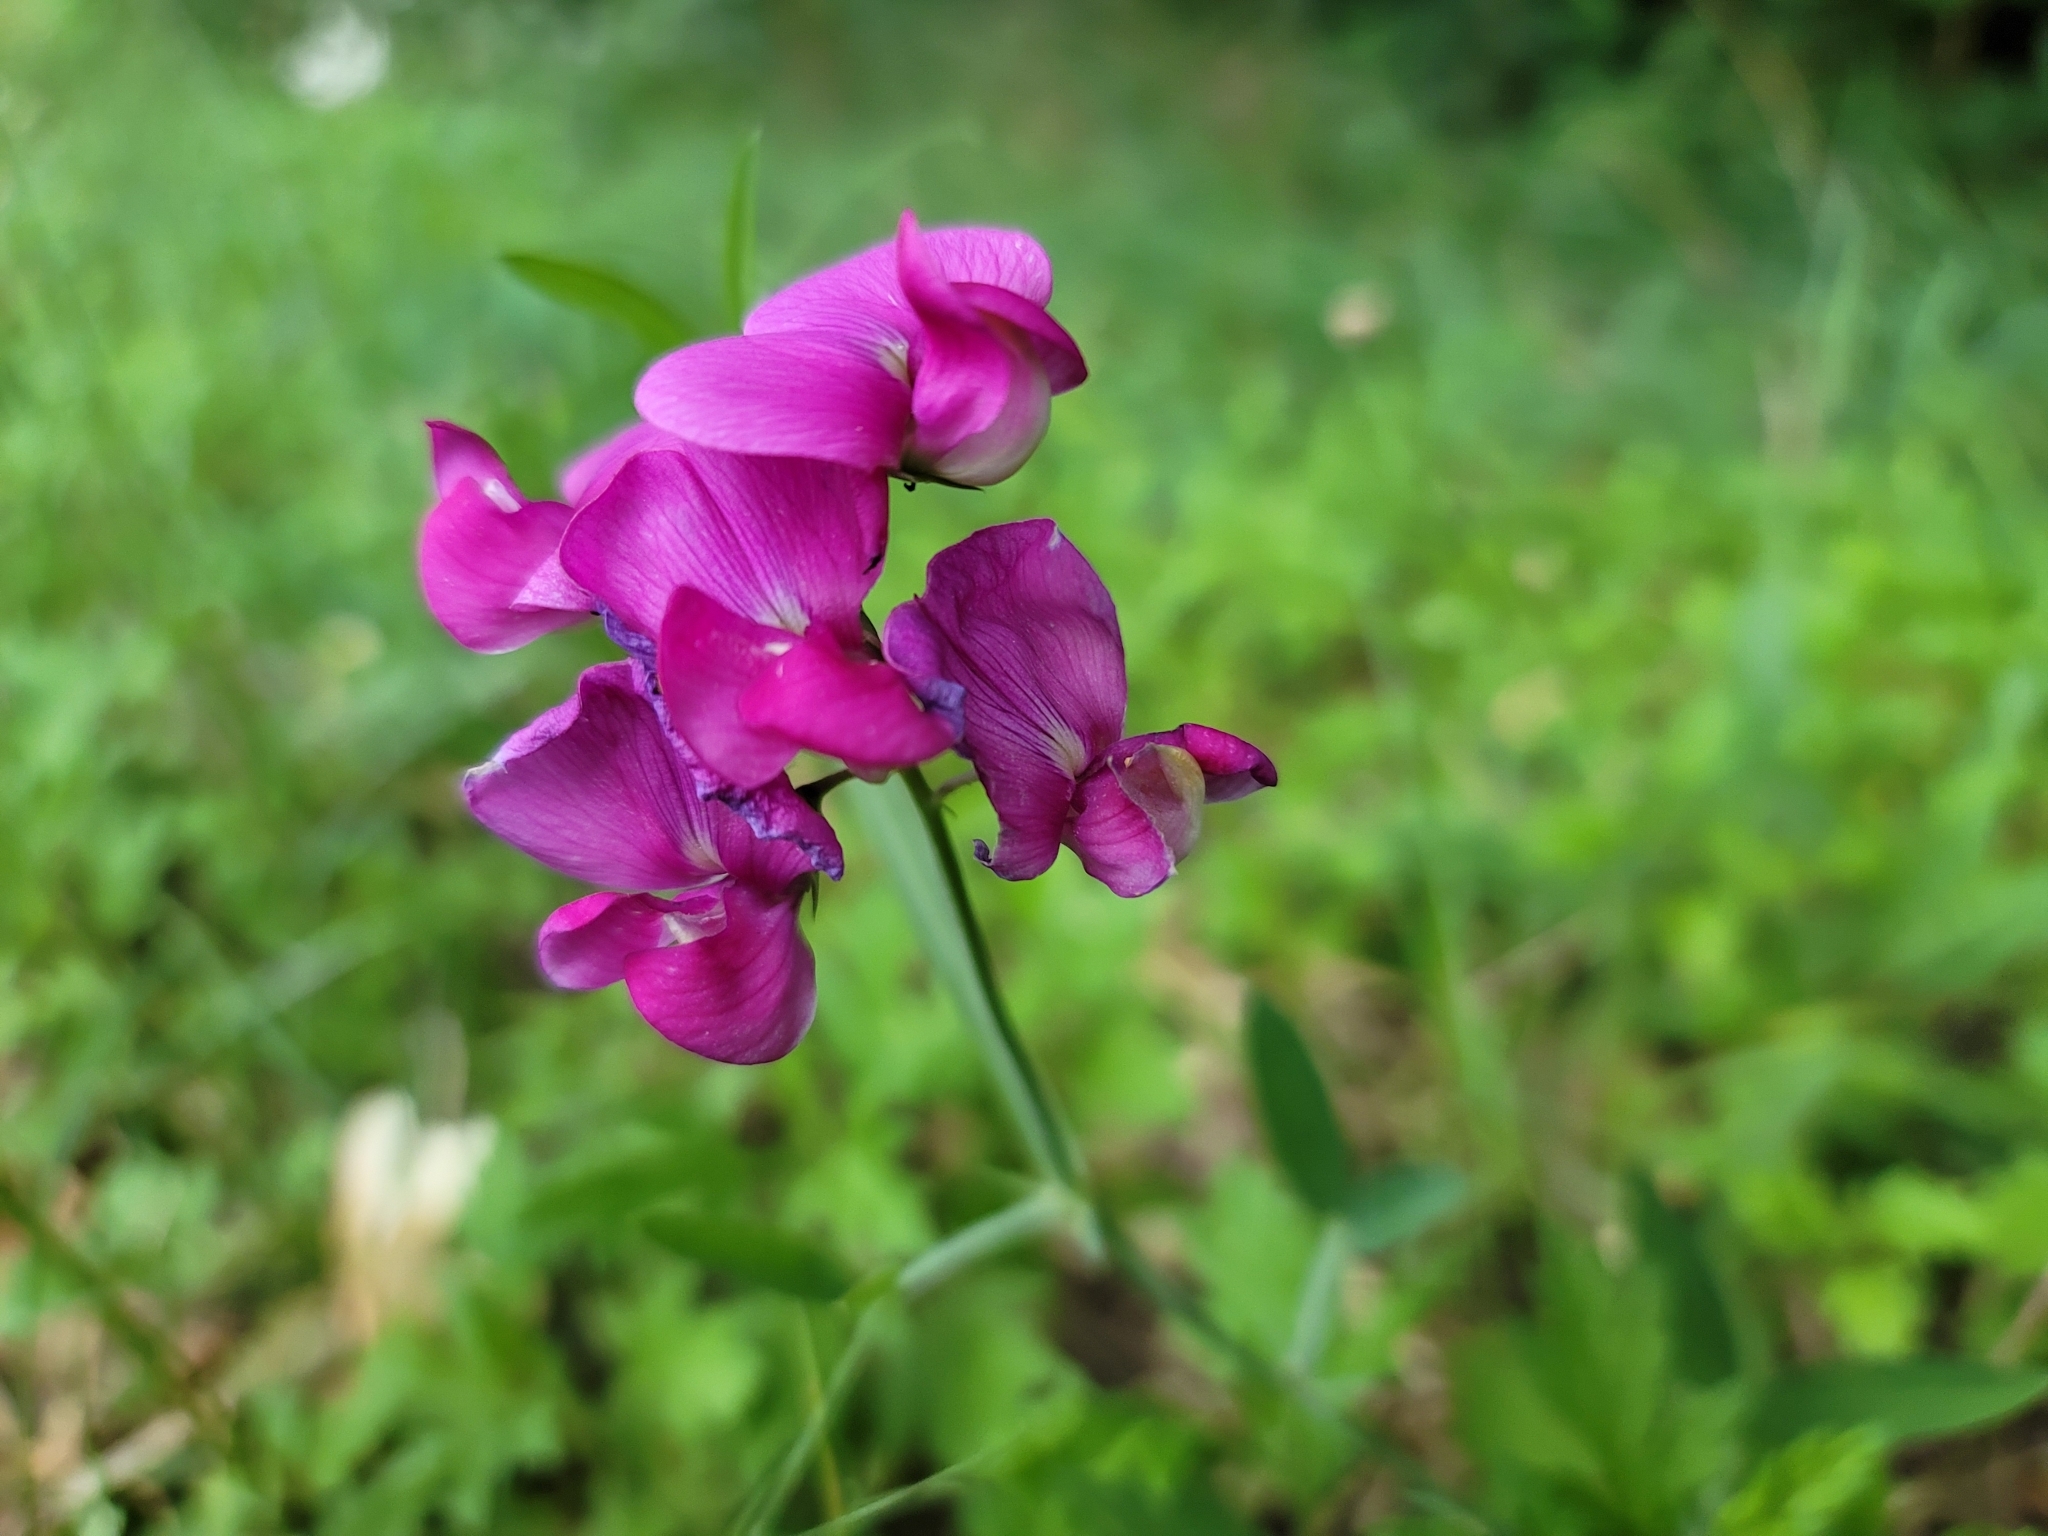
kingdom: Plantae
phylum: Tracheophyta
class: Magnoliopsida
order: Fabales
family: Fabaceae
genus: Lathyrus
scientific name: Lathyrus latifolius
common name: Perennial pea
